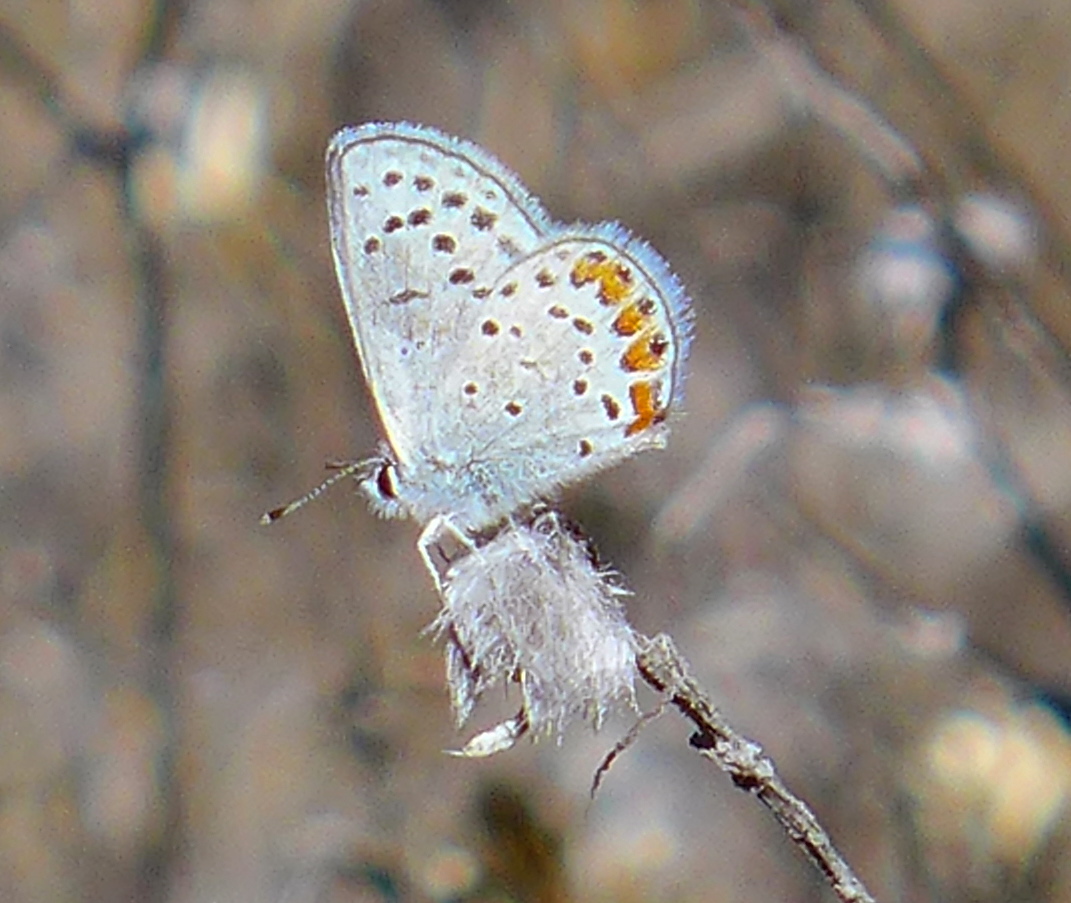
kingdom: Animalia
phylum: Arthropoda
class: Insecta
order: Lepidoptera
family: Lycaenidae
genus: Icaricia
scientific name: Icaricia acmon
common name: Acmon blue
